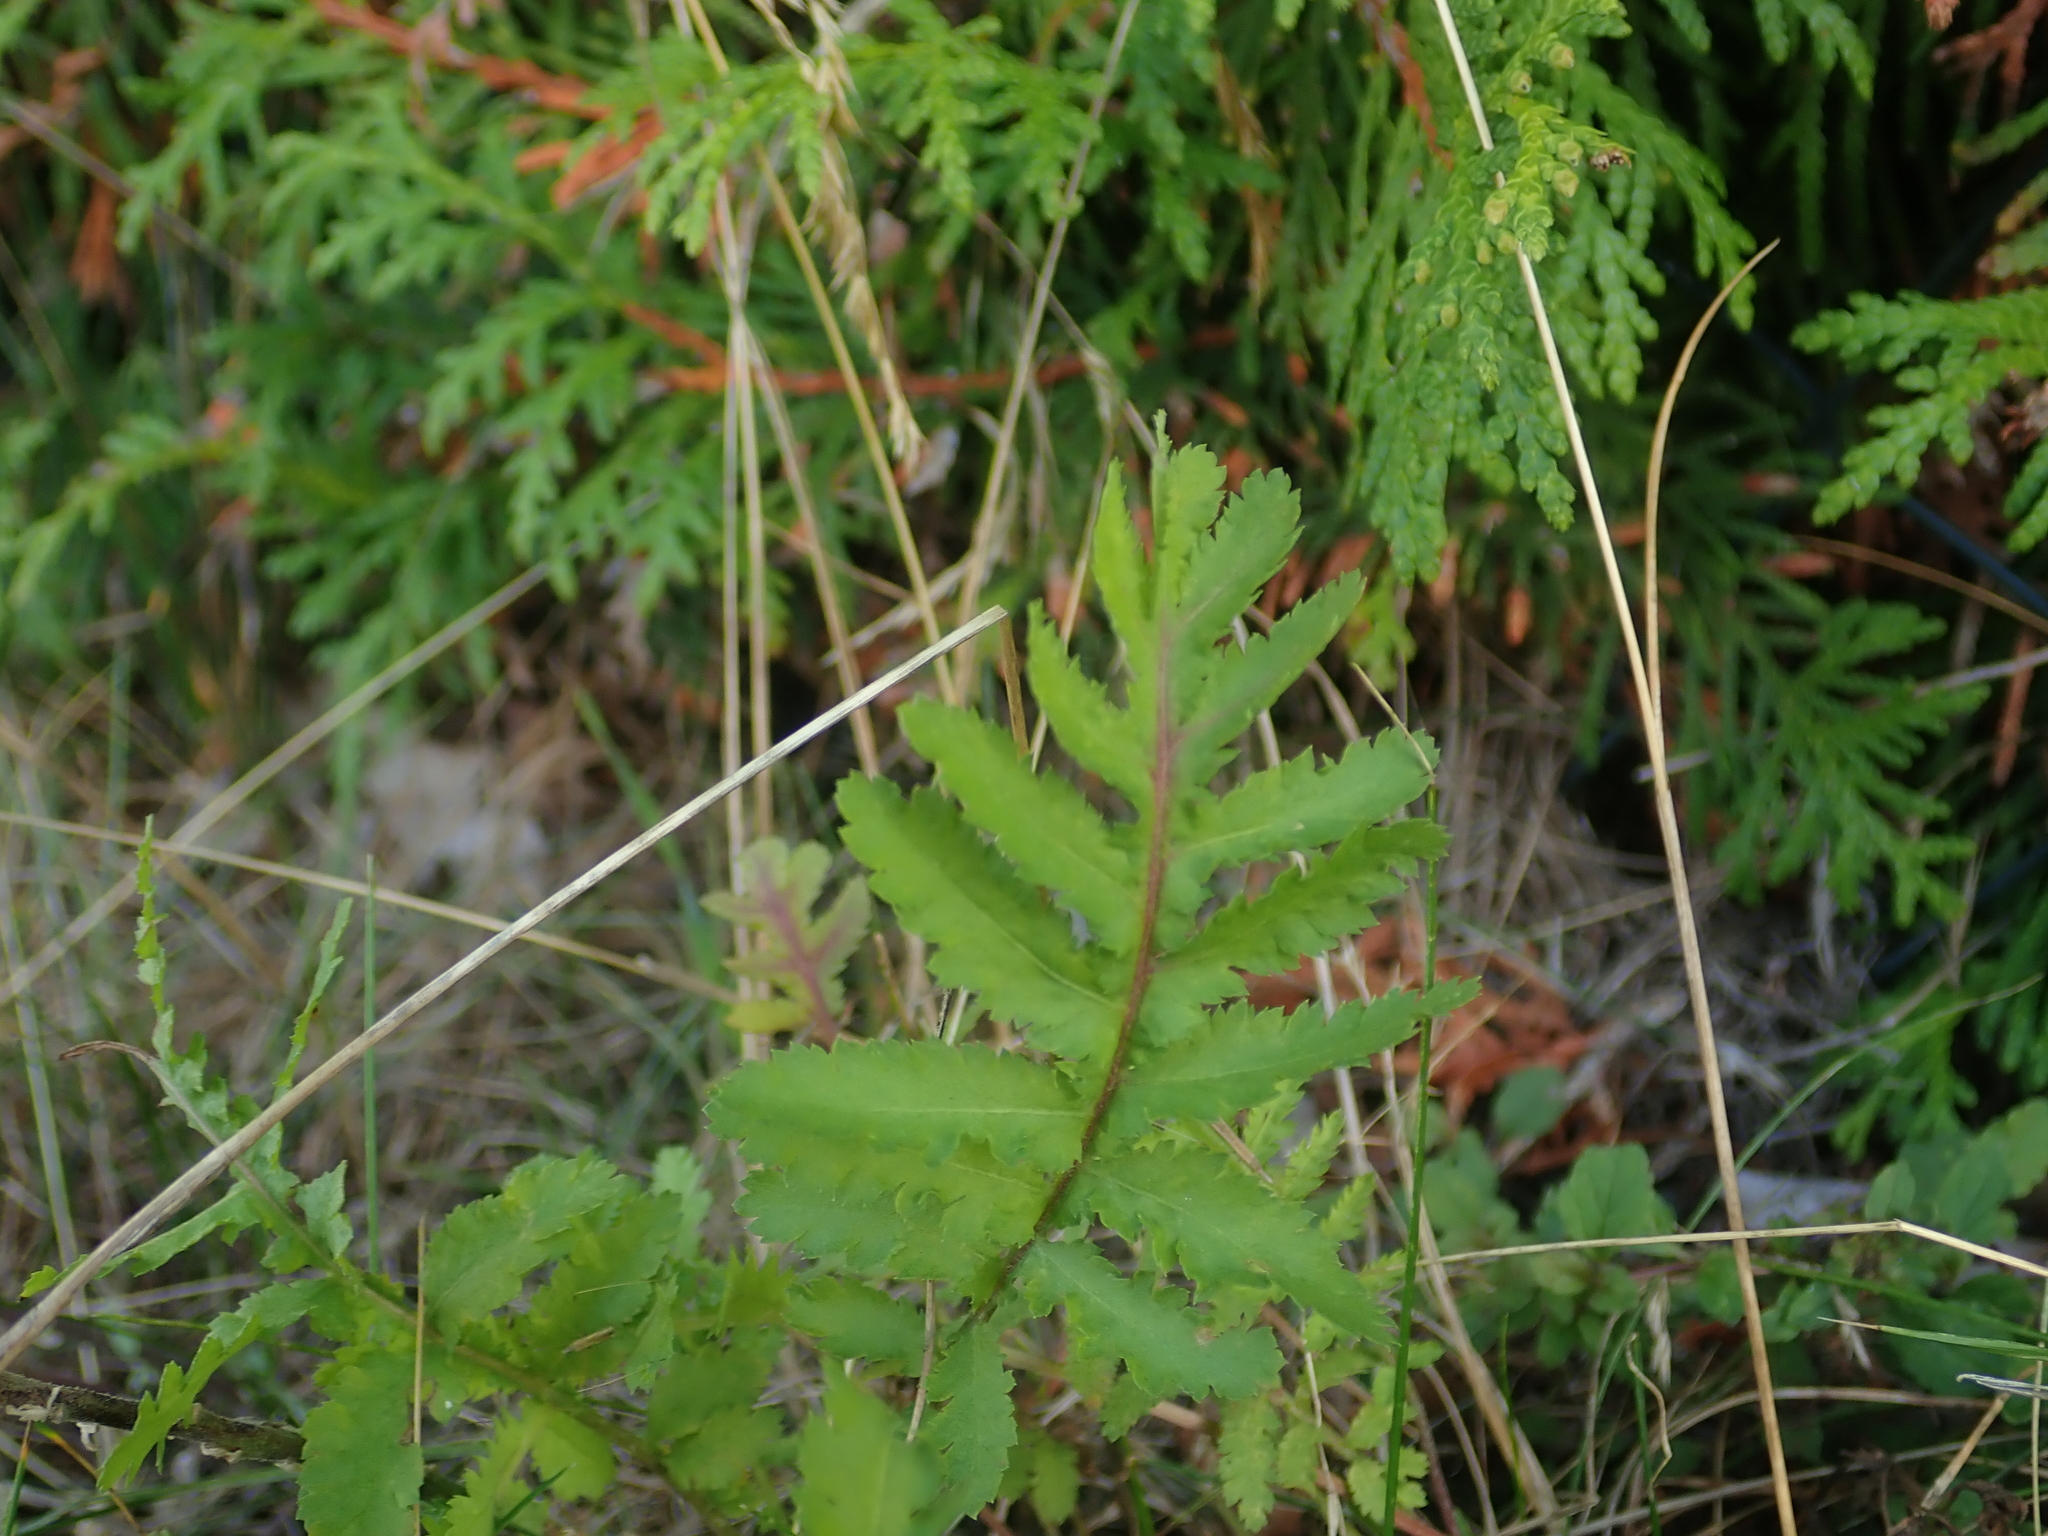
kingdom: Plantae
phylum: Tracheophyta
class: Magnoliopsida
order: Asterales
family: Asteraceae
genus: Tanacetum
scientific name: Tanacetum vulgare
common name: Common tansy
